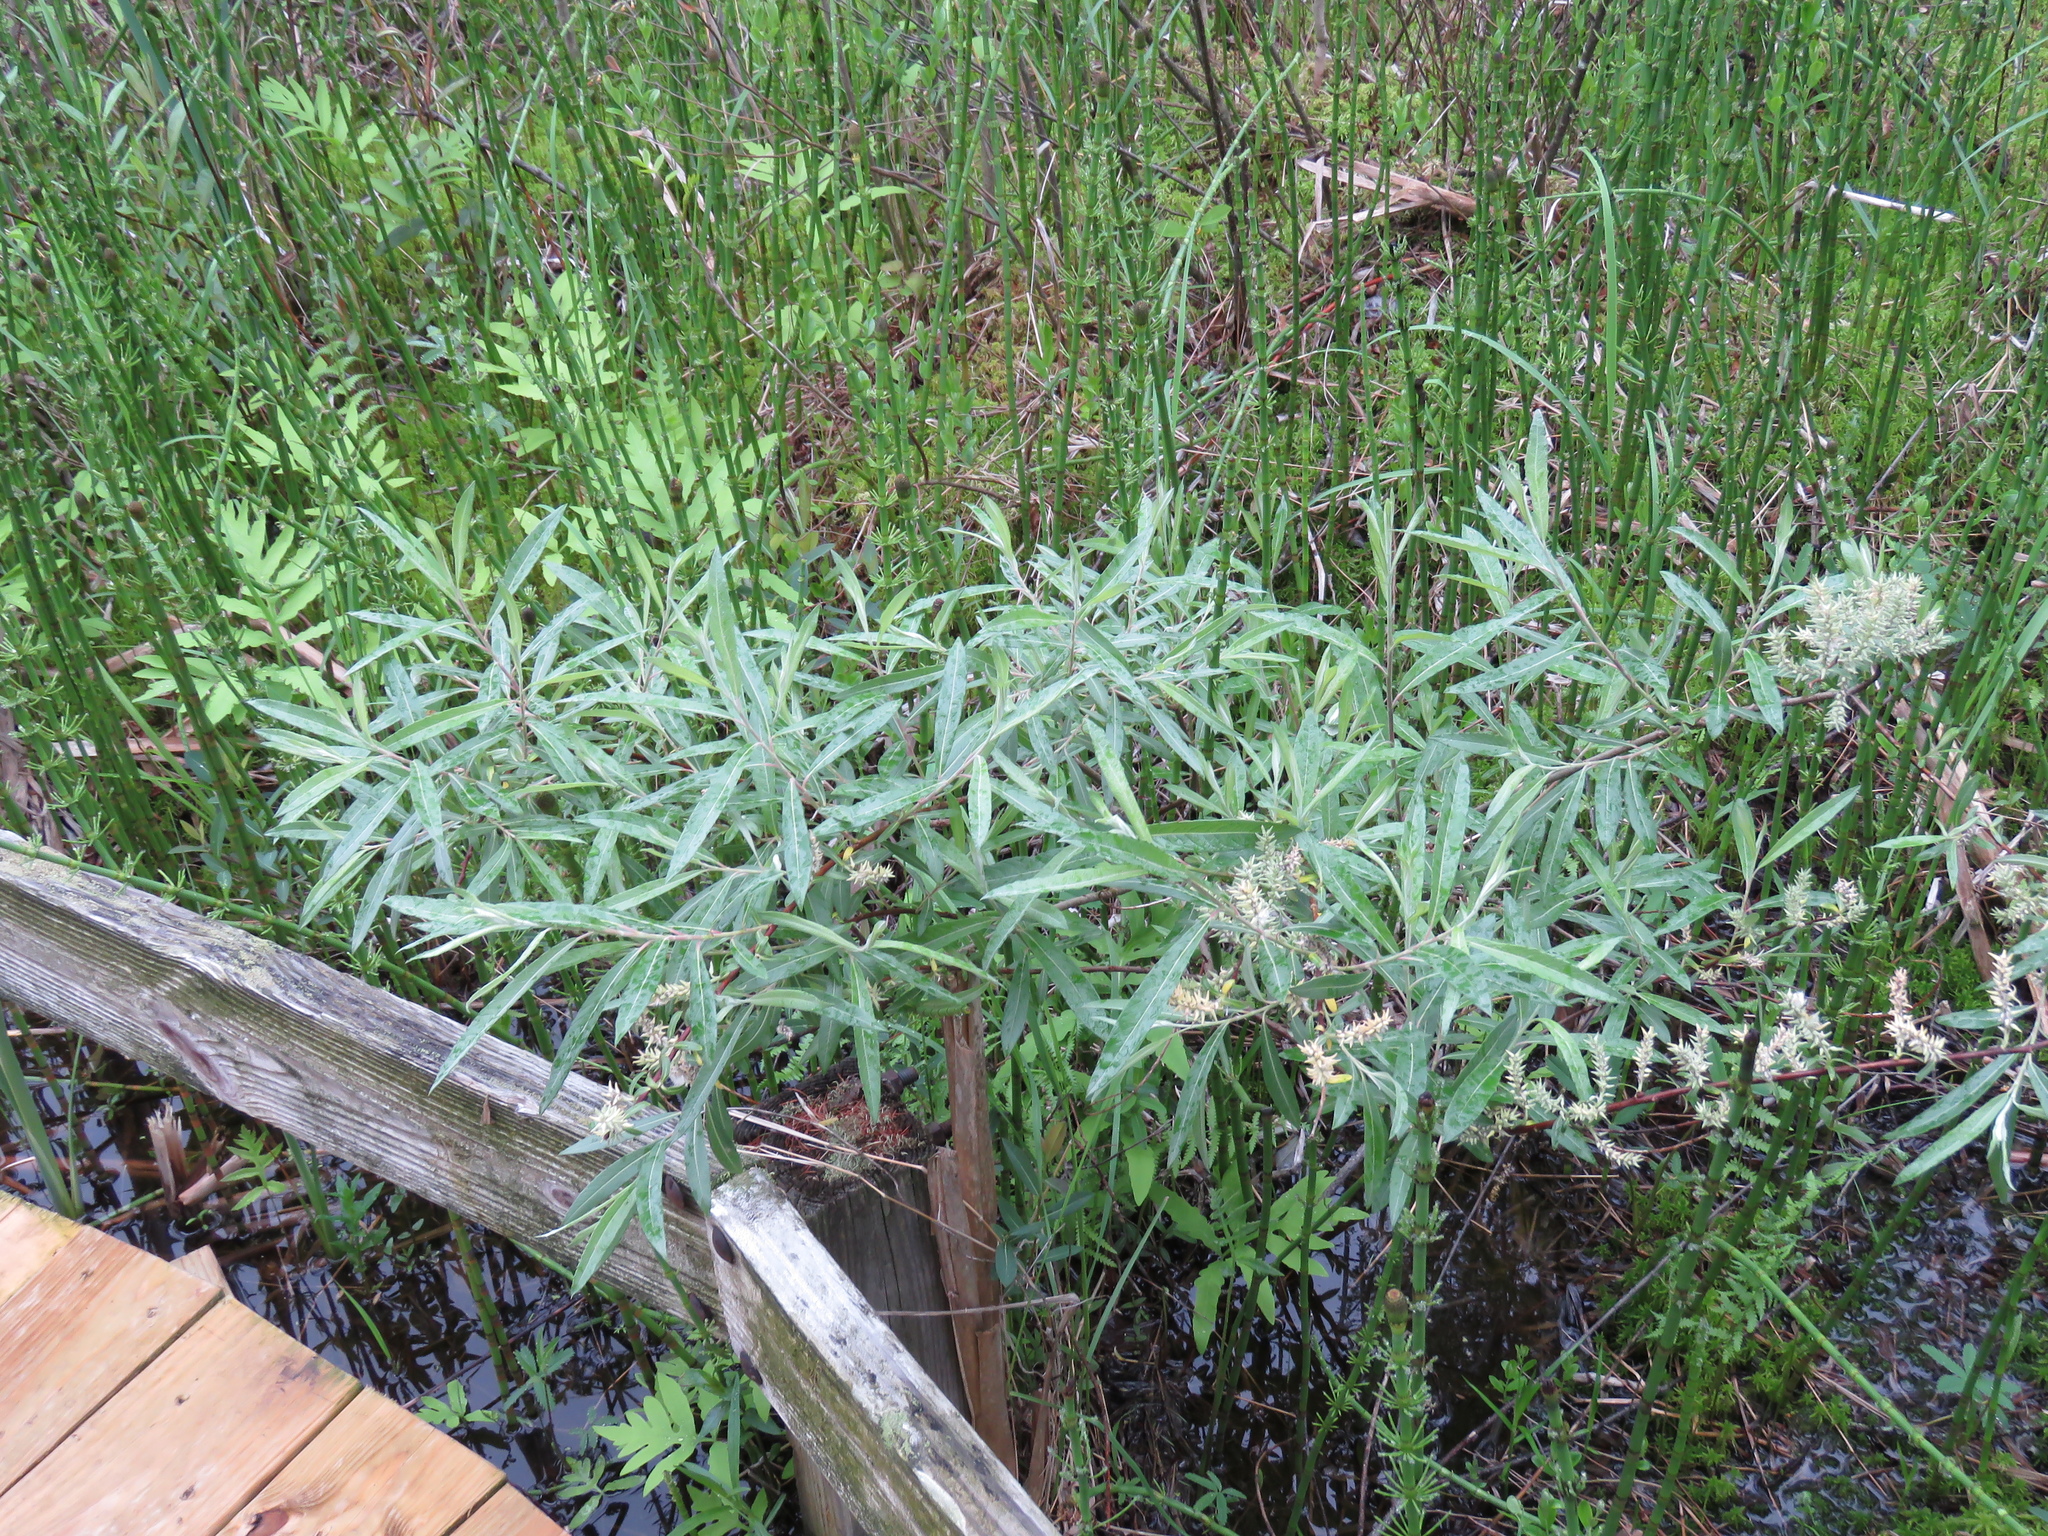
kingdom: Plantae
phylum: Tracheophyta
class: Magnoliopsida
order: Malpighiales
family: Salicaceae
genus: Salix
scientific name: Salix candida
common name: Hoary willow
